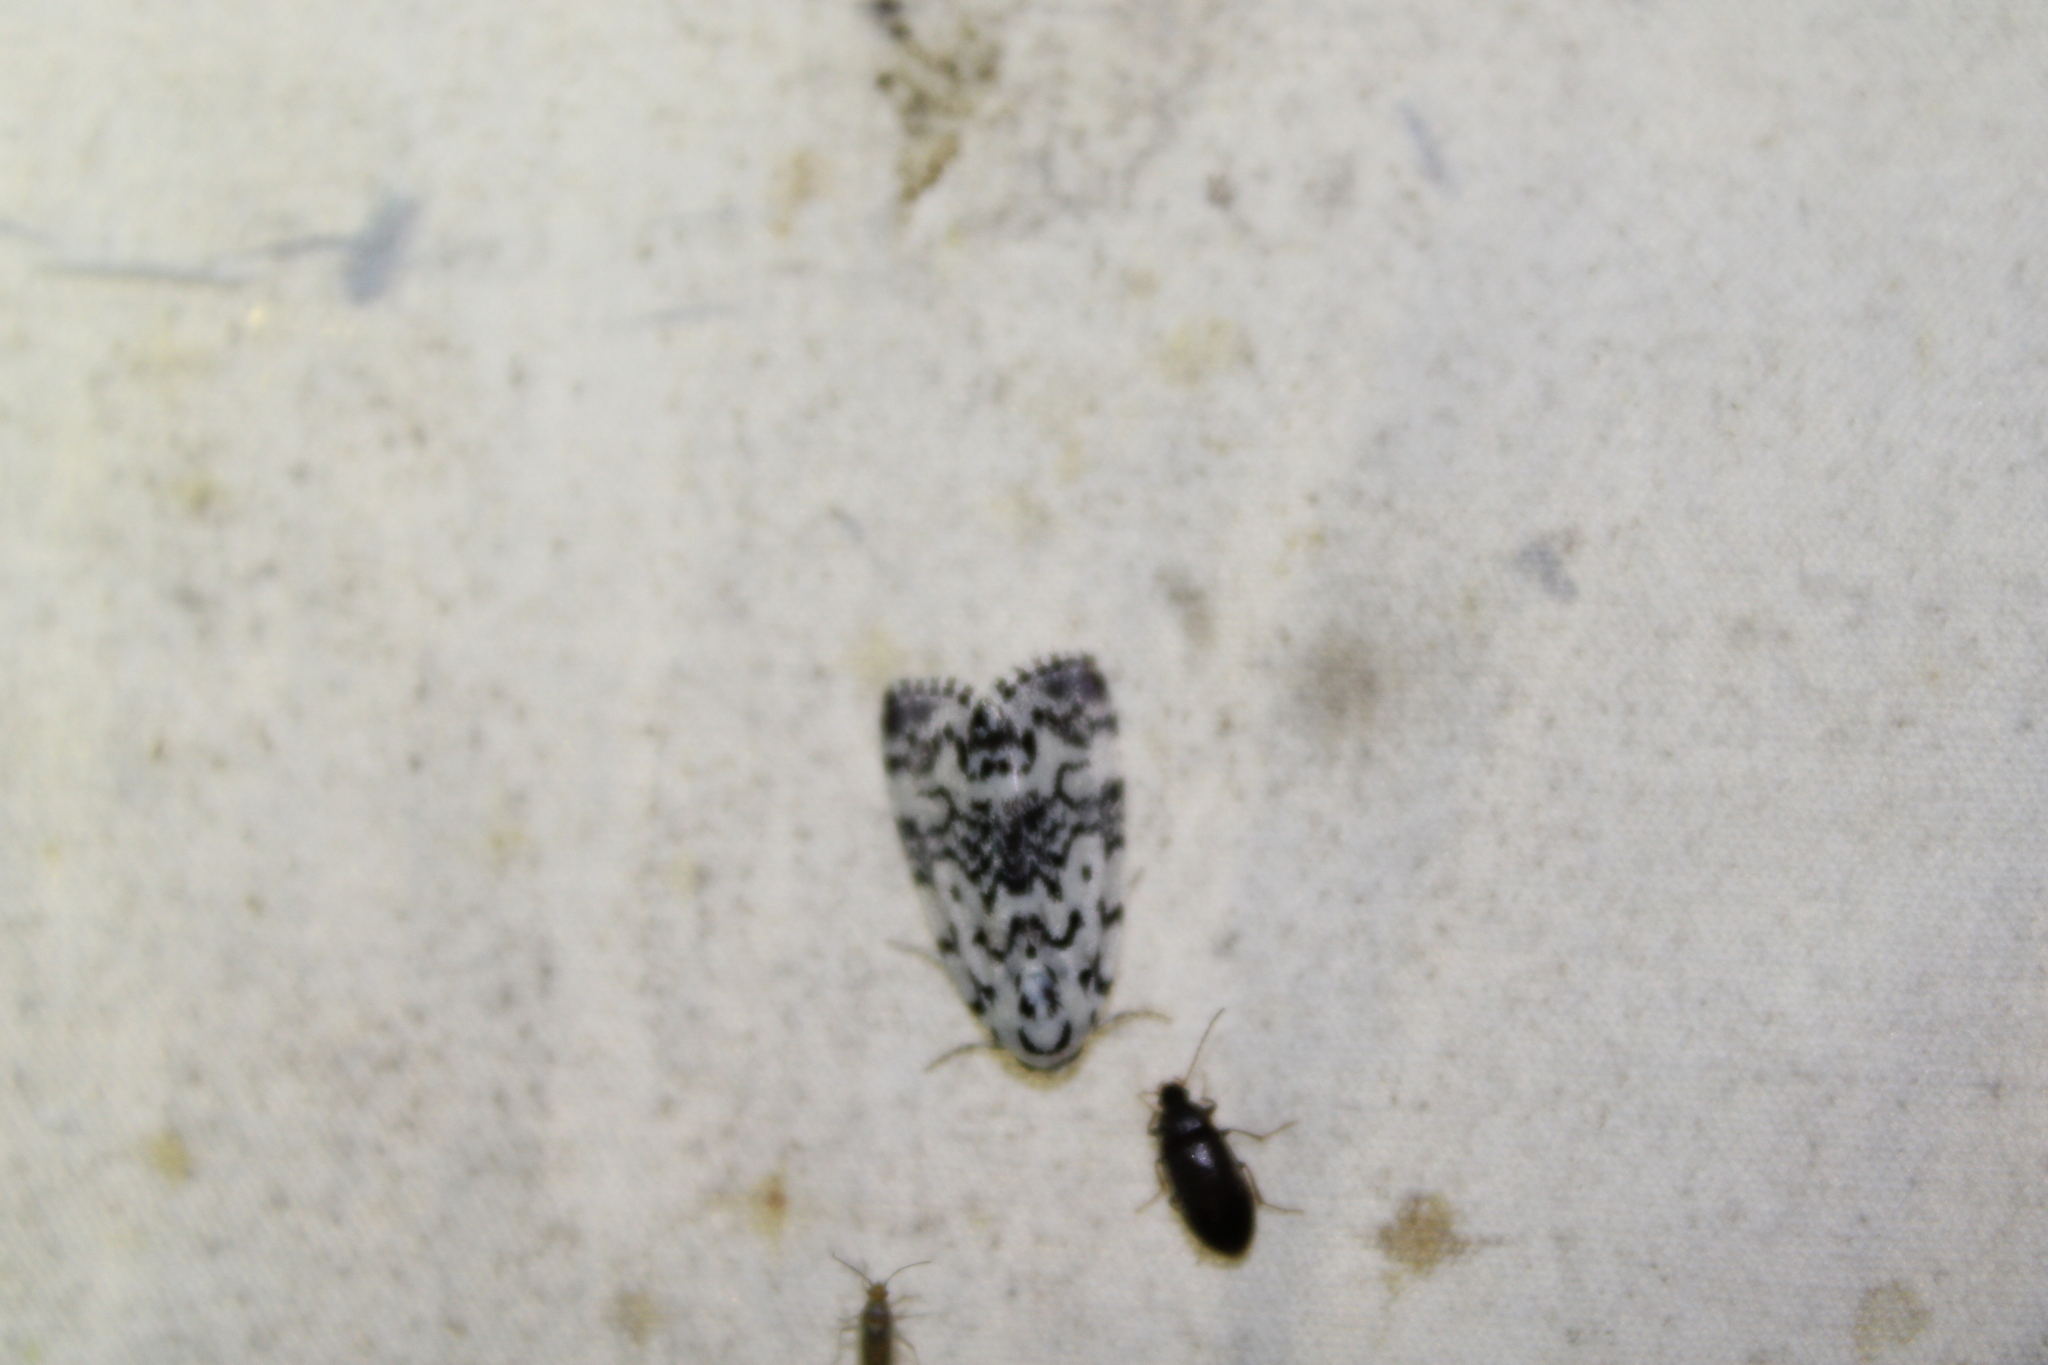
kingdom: Animalia
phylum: Arthropoda
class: Insecta
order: Lepidoptera
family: Noctuidae
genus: Polygrammate
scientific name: Polygrammate hebraeicum
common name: Hebrew moth
